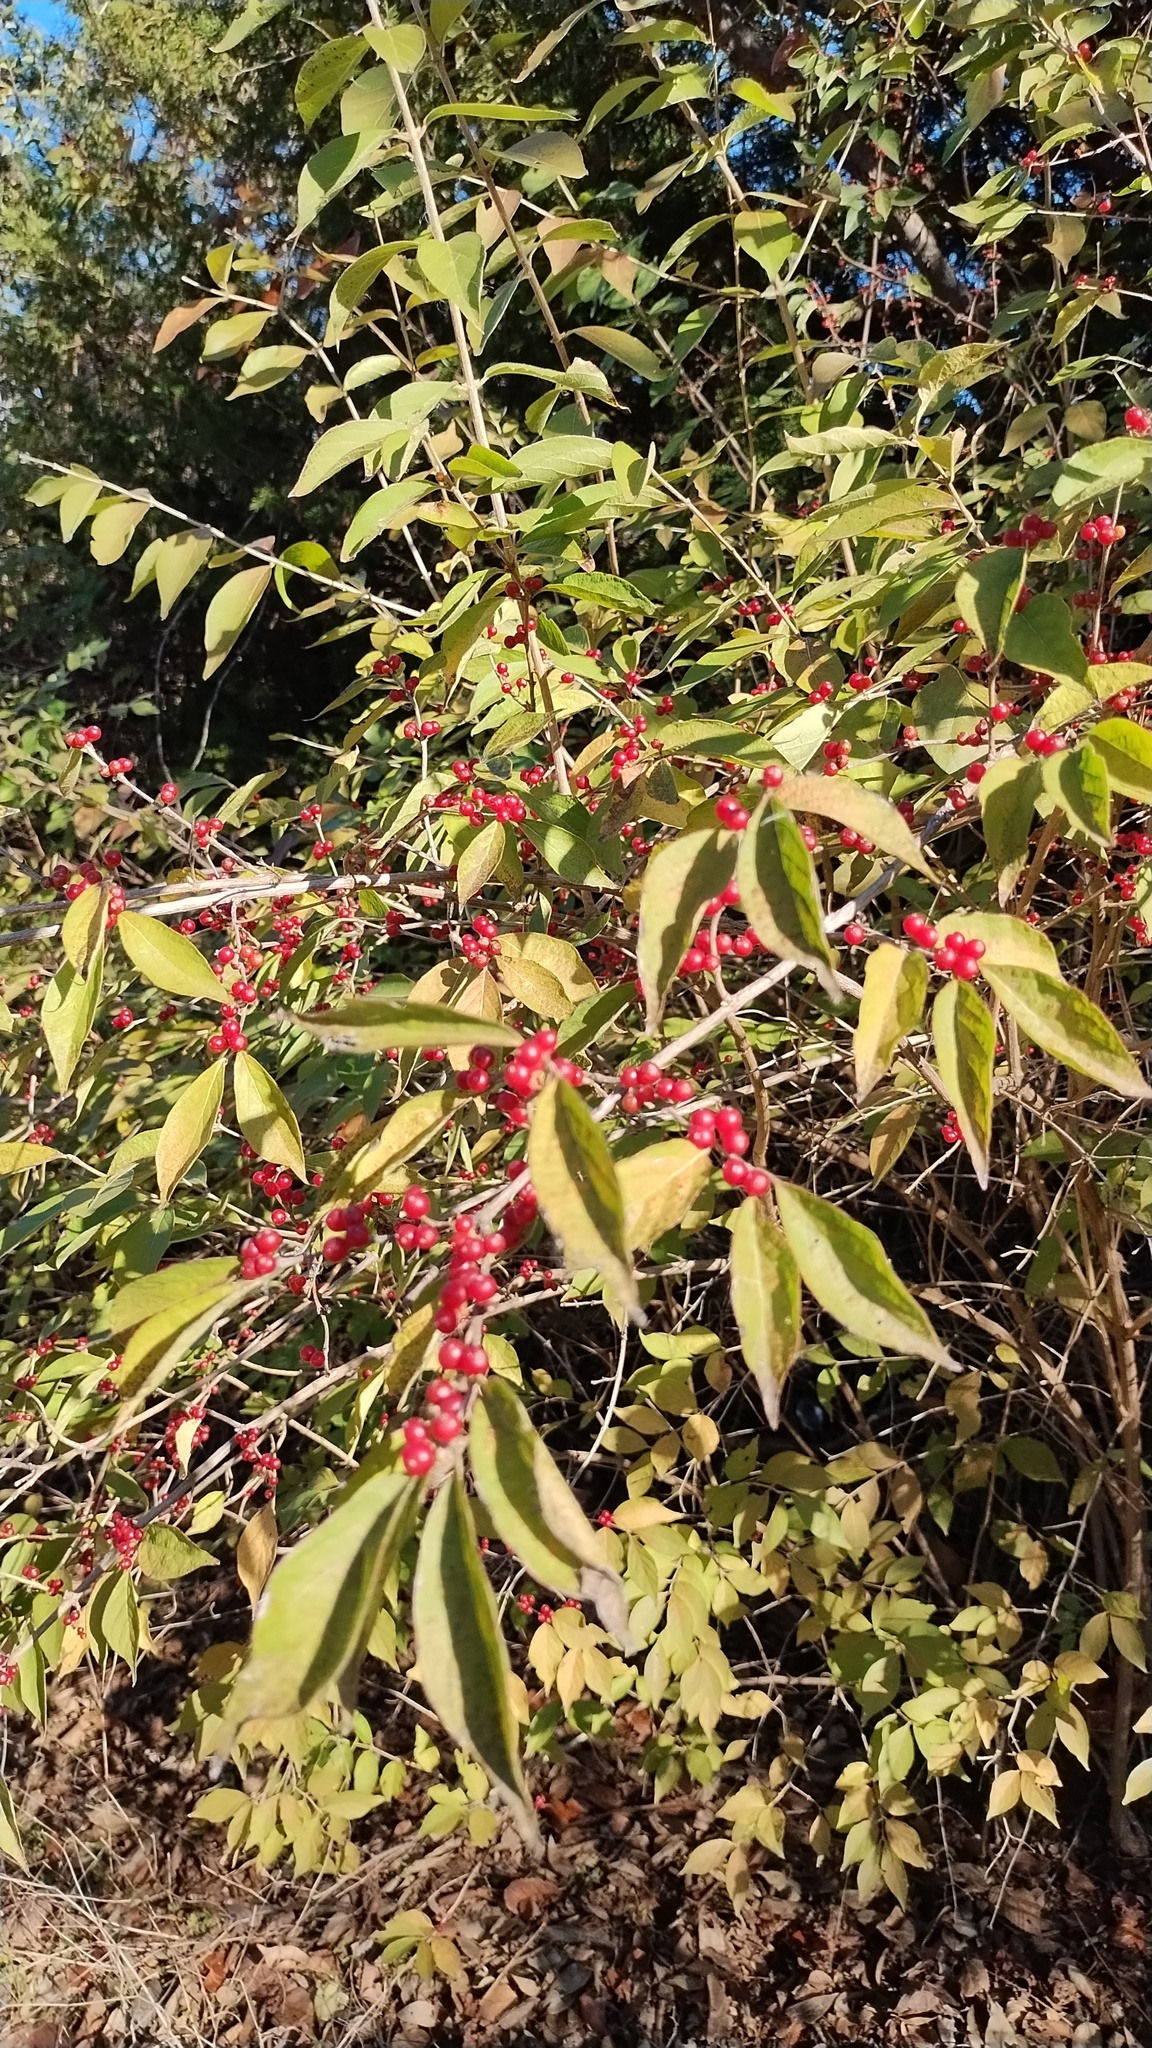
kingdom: Plantae
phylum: Tracheophyta
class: Magnoliopsida
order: Dipsacales
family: Caprifoliaceae
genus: Lonicera
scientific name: Lonicera maackii
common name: Amur honeysuckle
